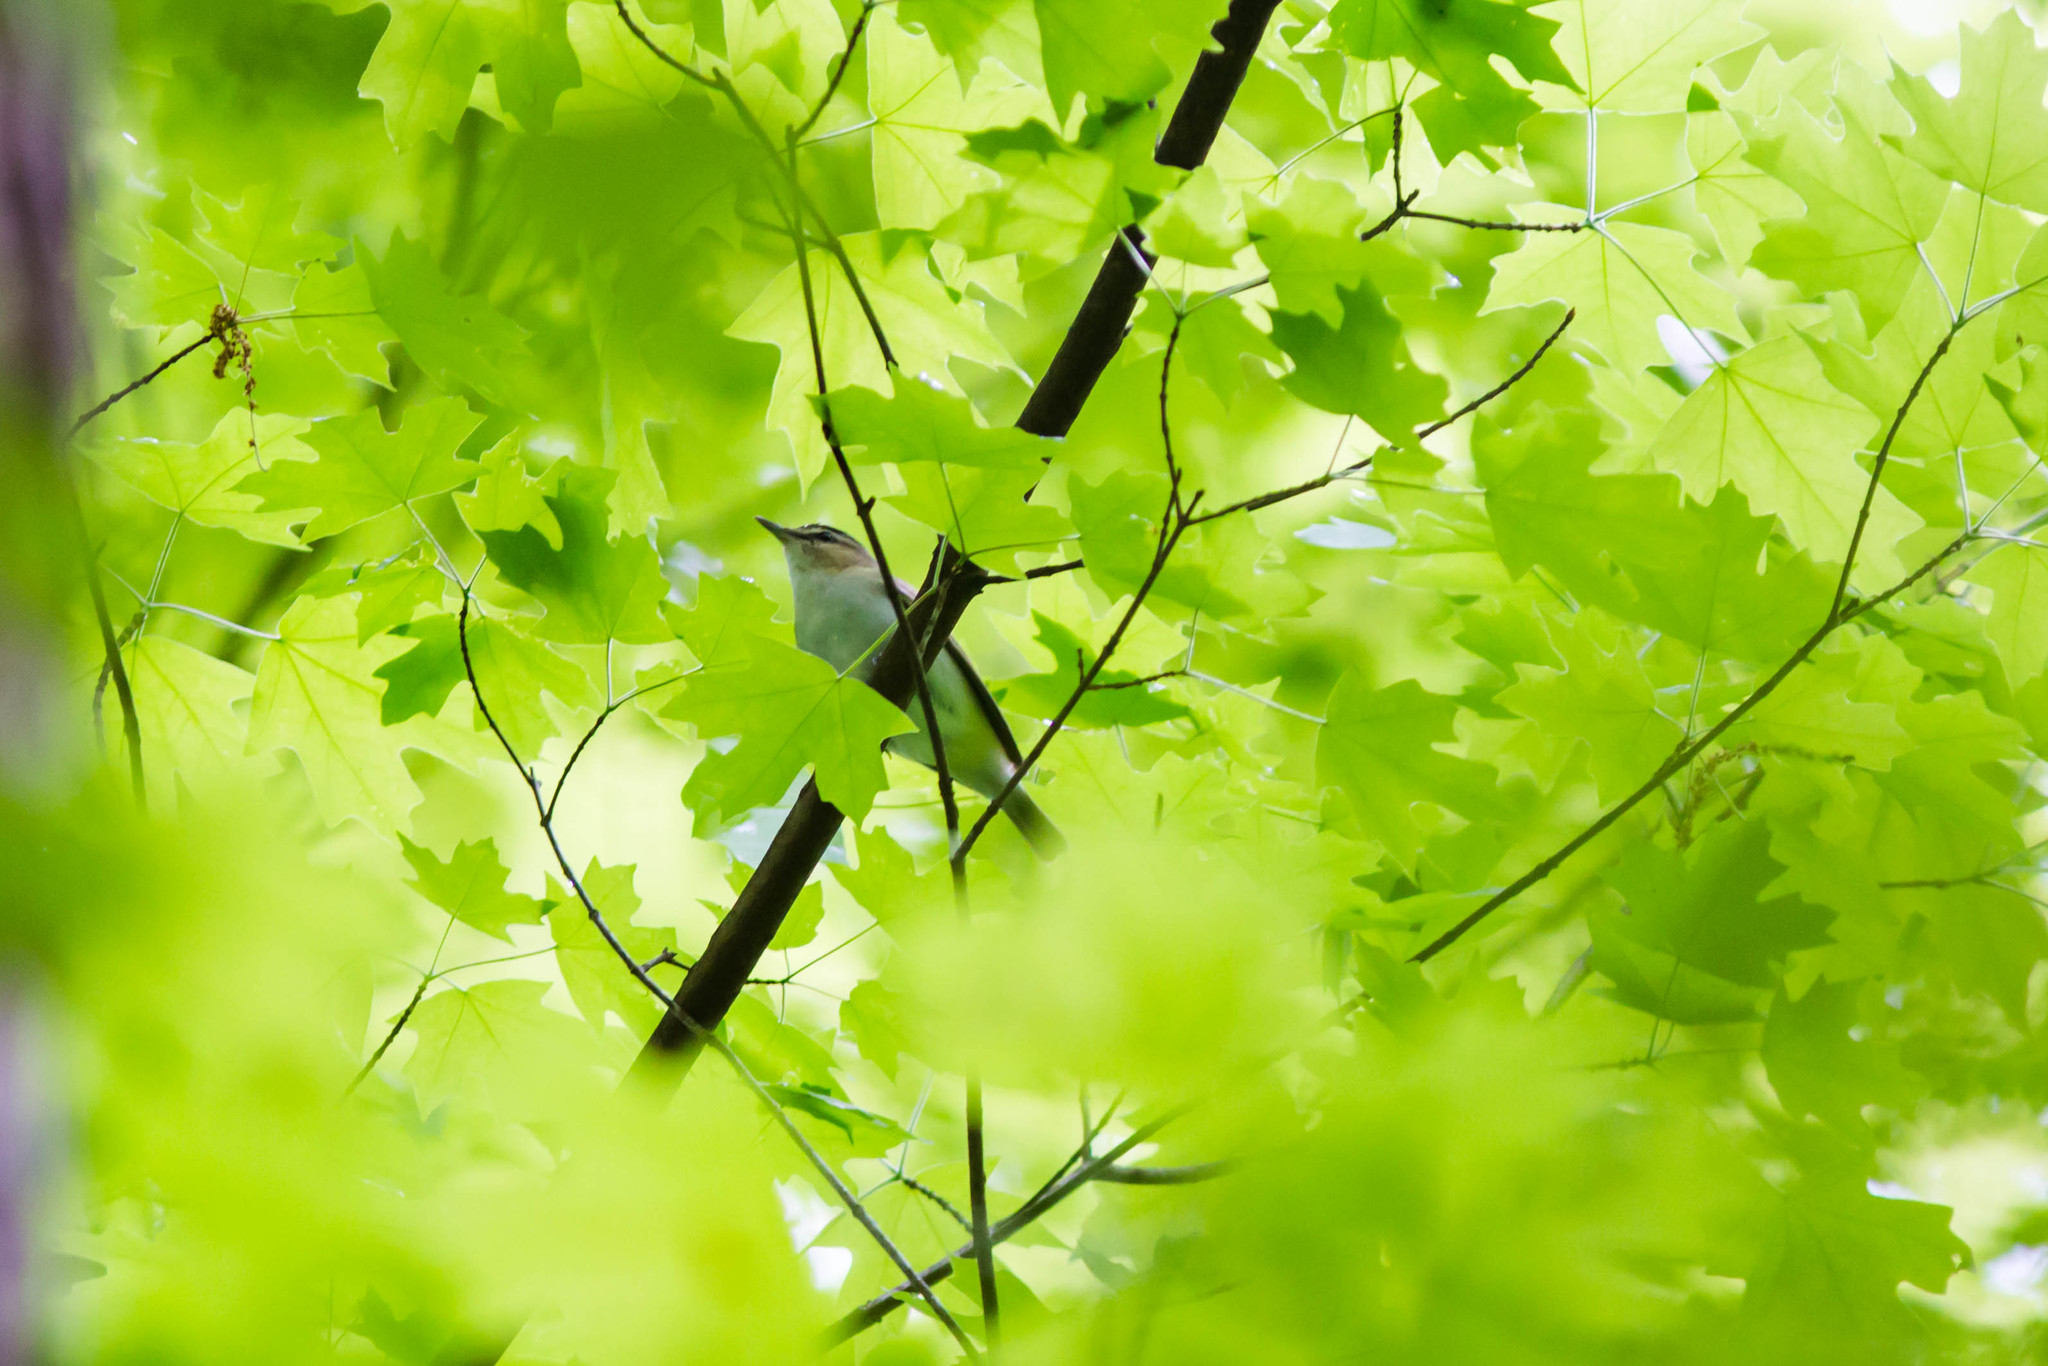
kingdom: Animalia
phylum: Chordata
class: Aves
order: Passeriformes
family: Vireonidae
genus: Vireo
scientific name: Vireo olivaceus
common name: Red-eyed vireo
